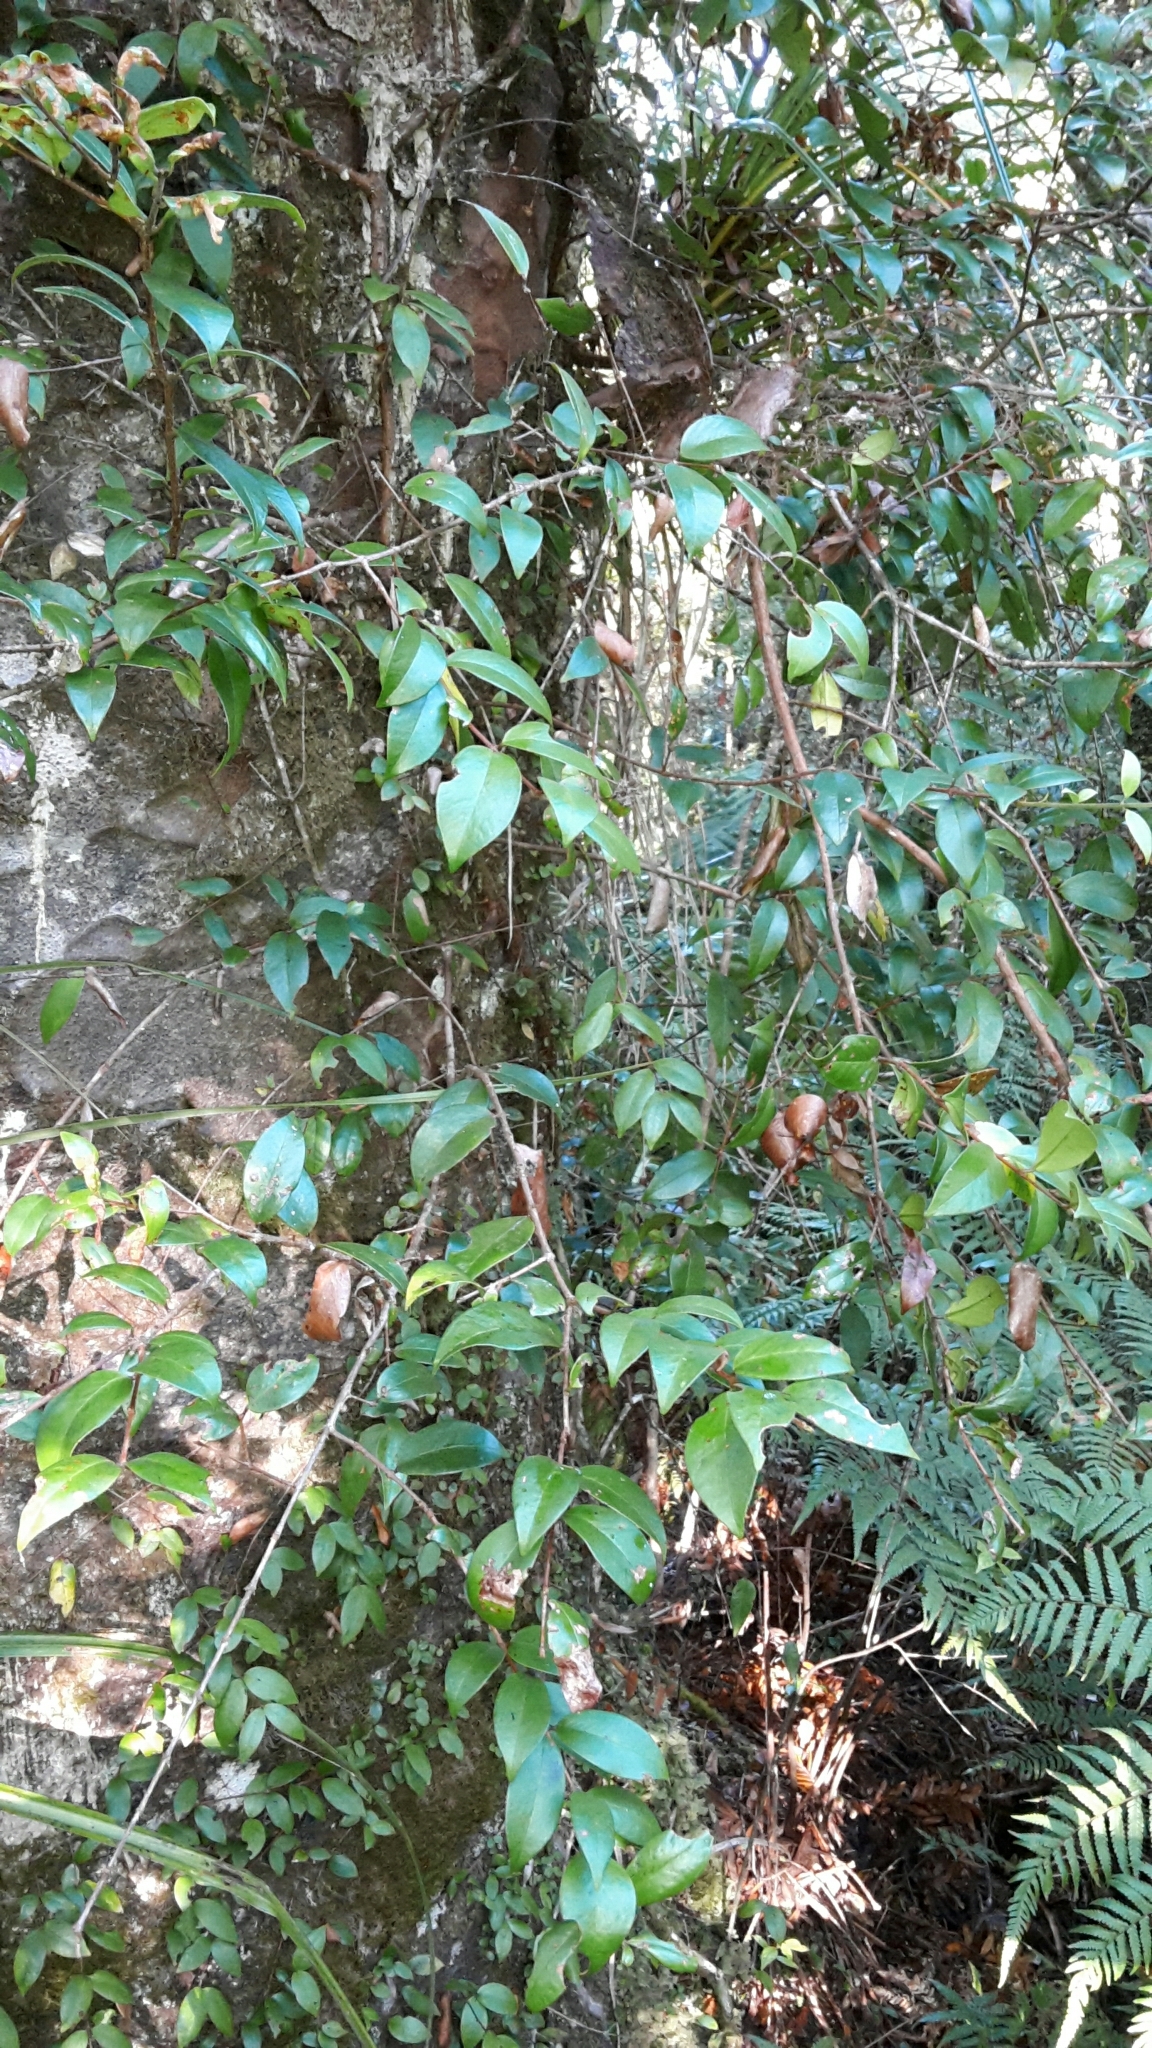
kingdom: Plantae
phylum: Tracheophyta
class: Magnoliopsida
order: Myrtales
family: Myrtaceae
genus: Metrosideros
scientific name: Metrosideros albiflora
